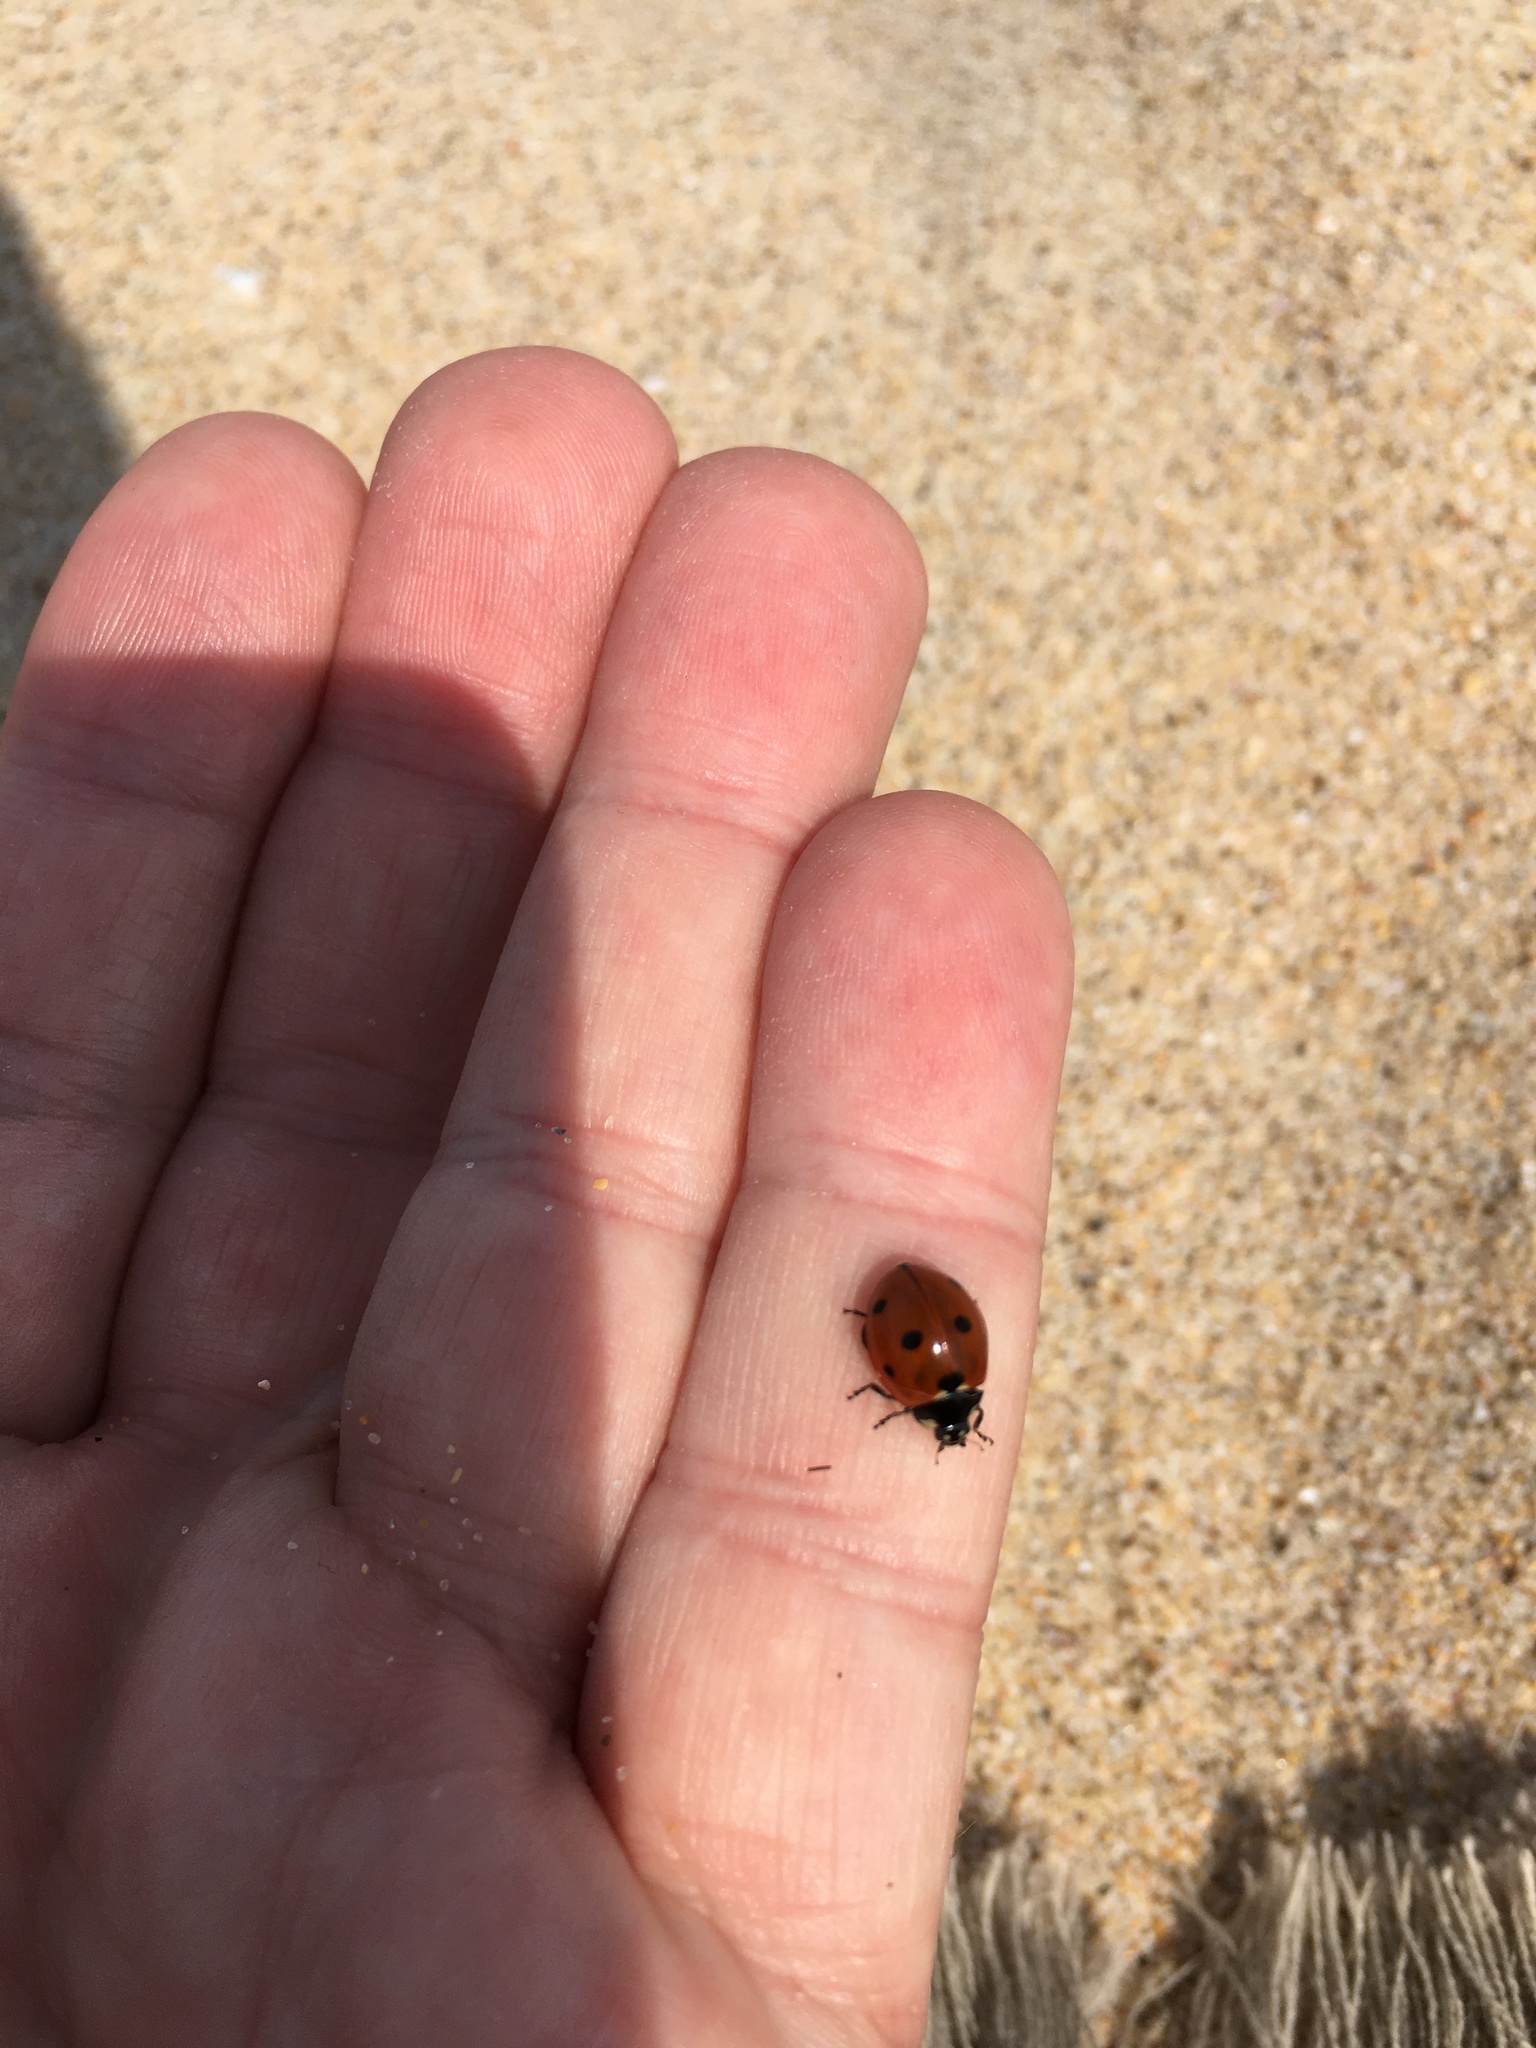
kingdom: Animalia
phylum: Arthropoda
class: Insecta
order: Coleoptera
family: Coccinellidae
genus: Coccinella
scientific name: Coccinella septempunctata
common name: Sevenspotted lady beetle
